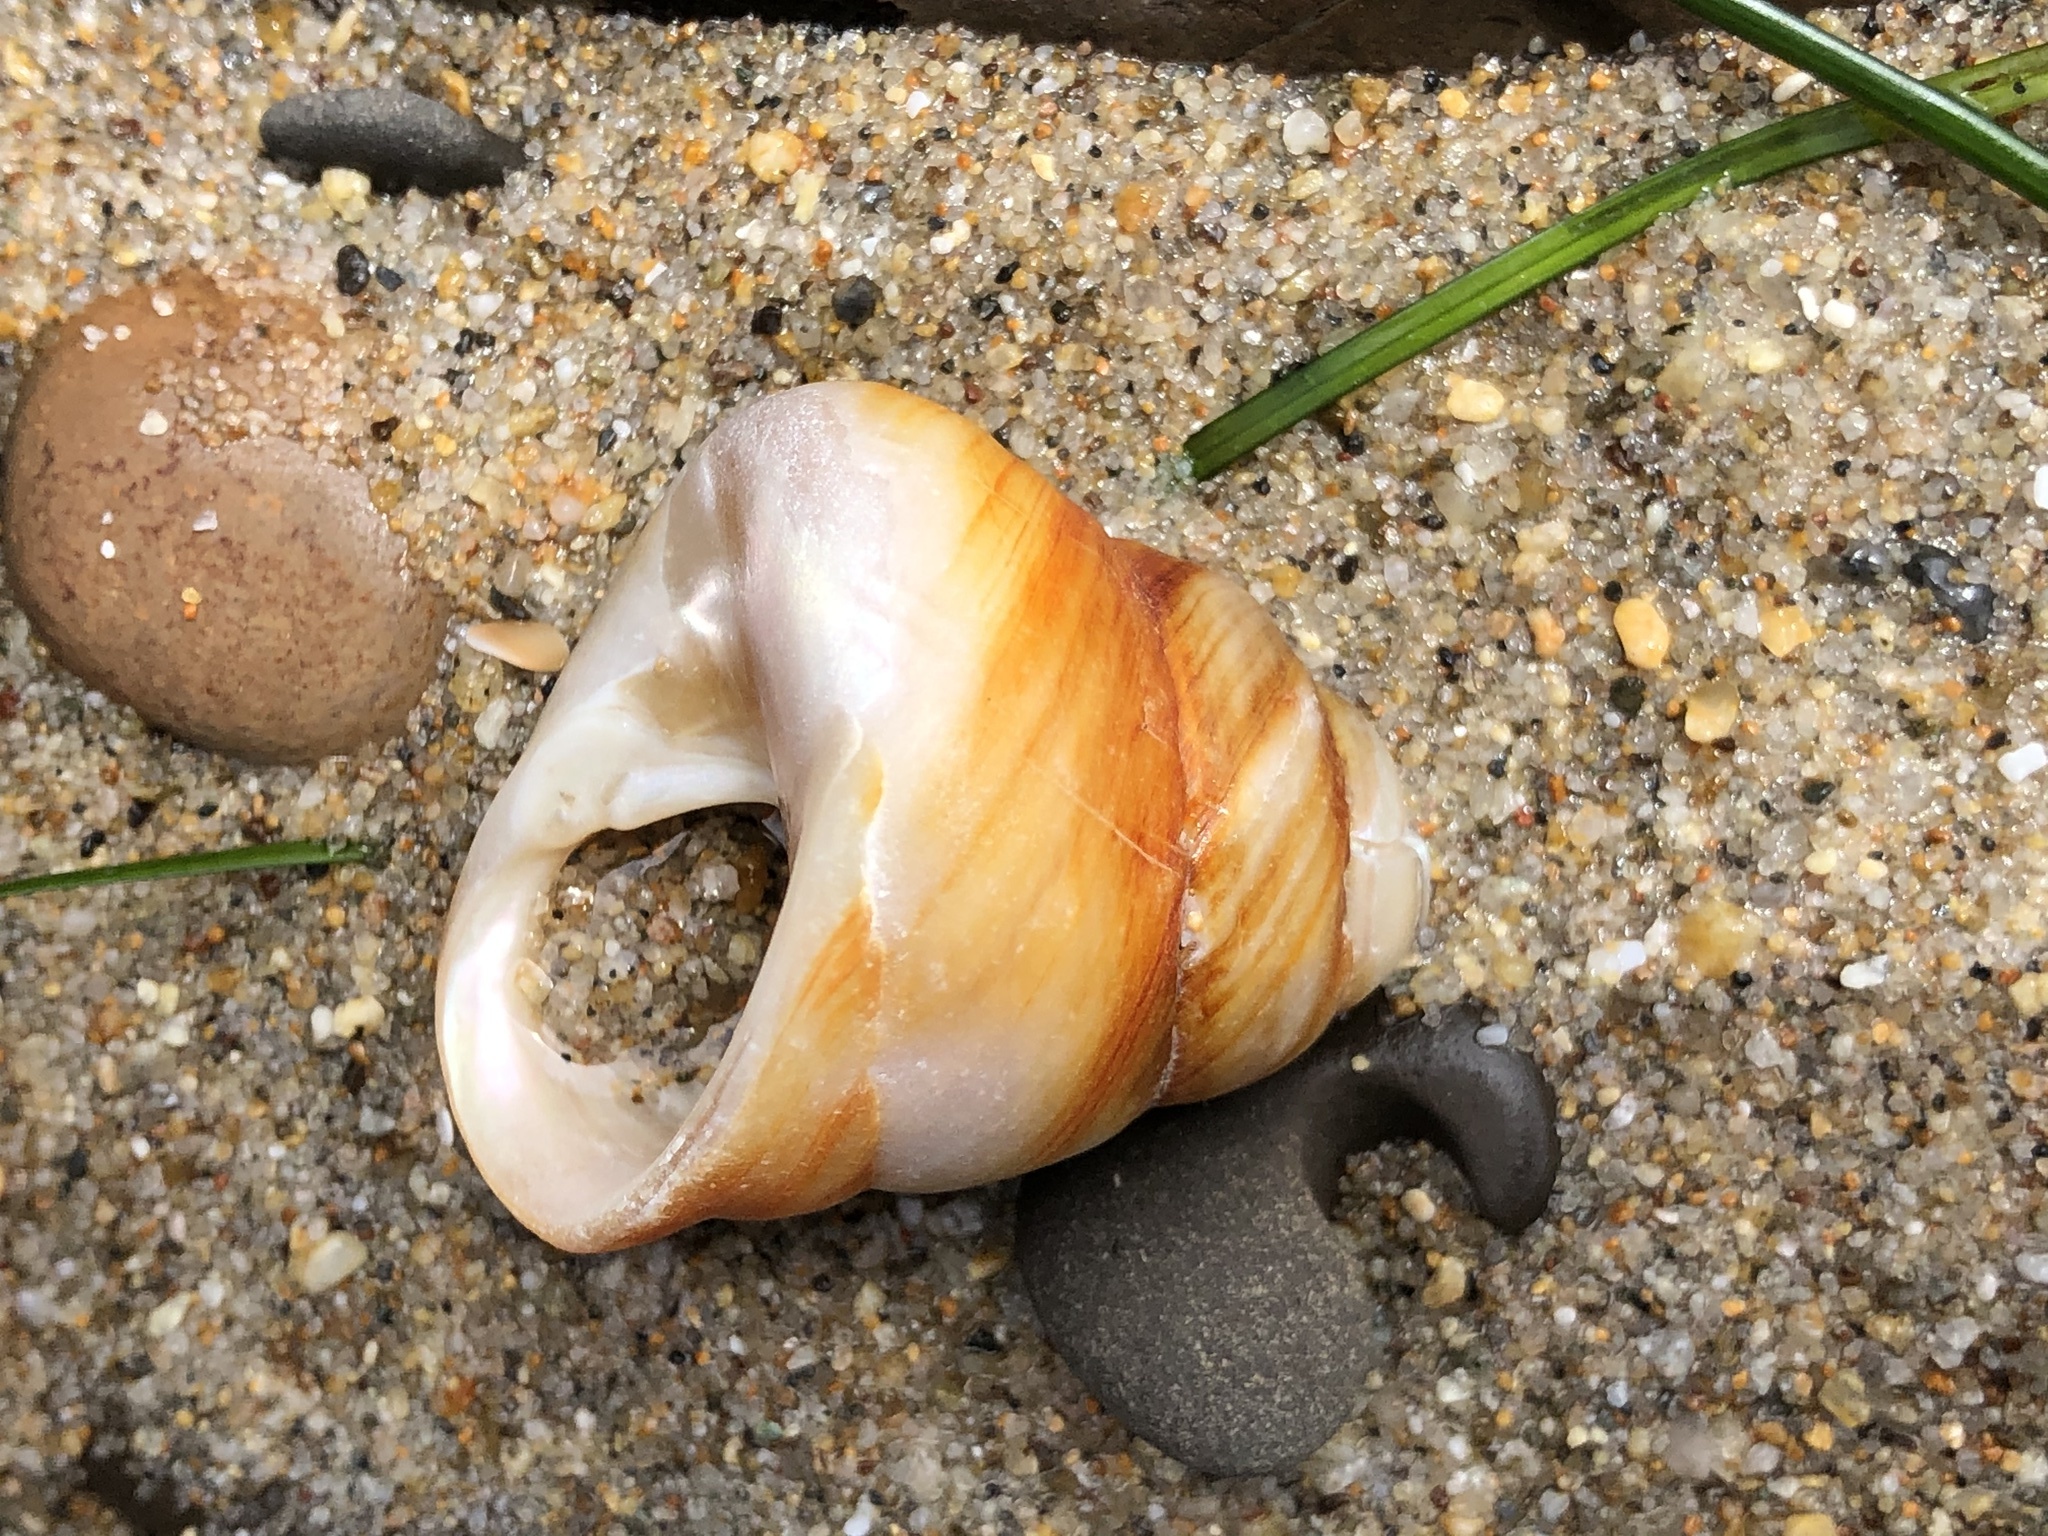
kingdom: Animalia
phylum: Mollusca
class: Gastropoda
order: Trochida
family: Tegulidae
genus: Tegula
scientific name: Tegula brunnea
